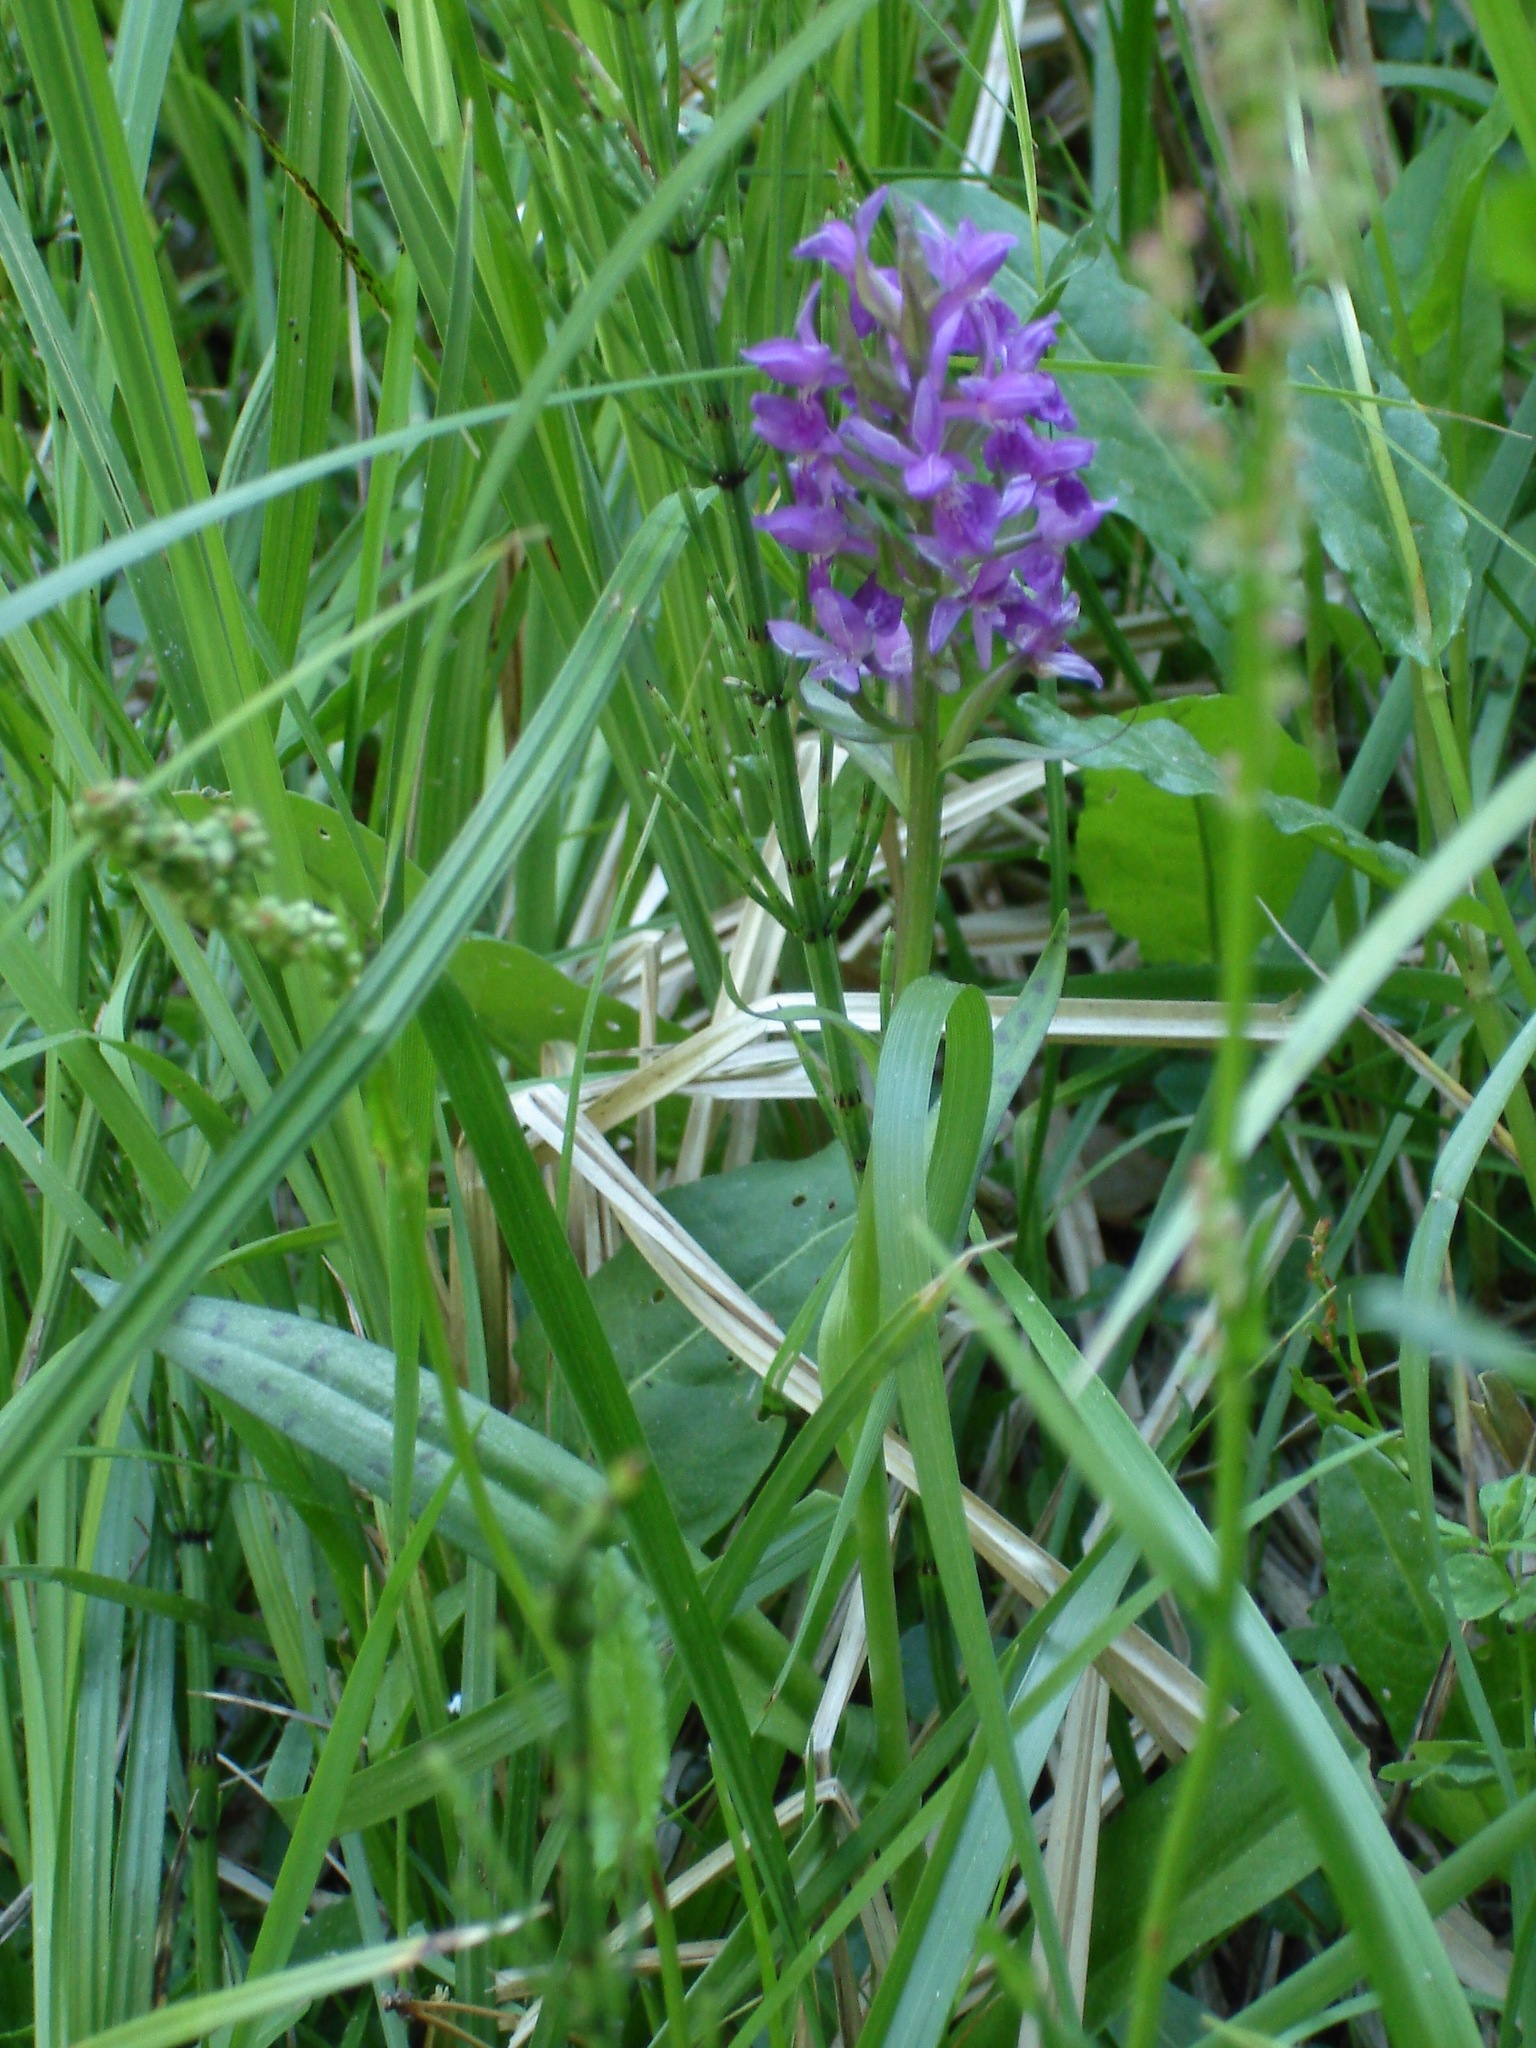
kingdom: Plantae
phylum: Tracheophyta
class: Liliopsida
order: Asparagales
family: Orchidaceae
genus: Dactylorhiza
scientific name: Dactylorhiza majalis
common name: Marsh orchid
